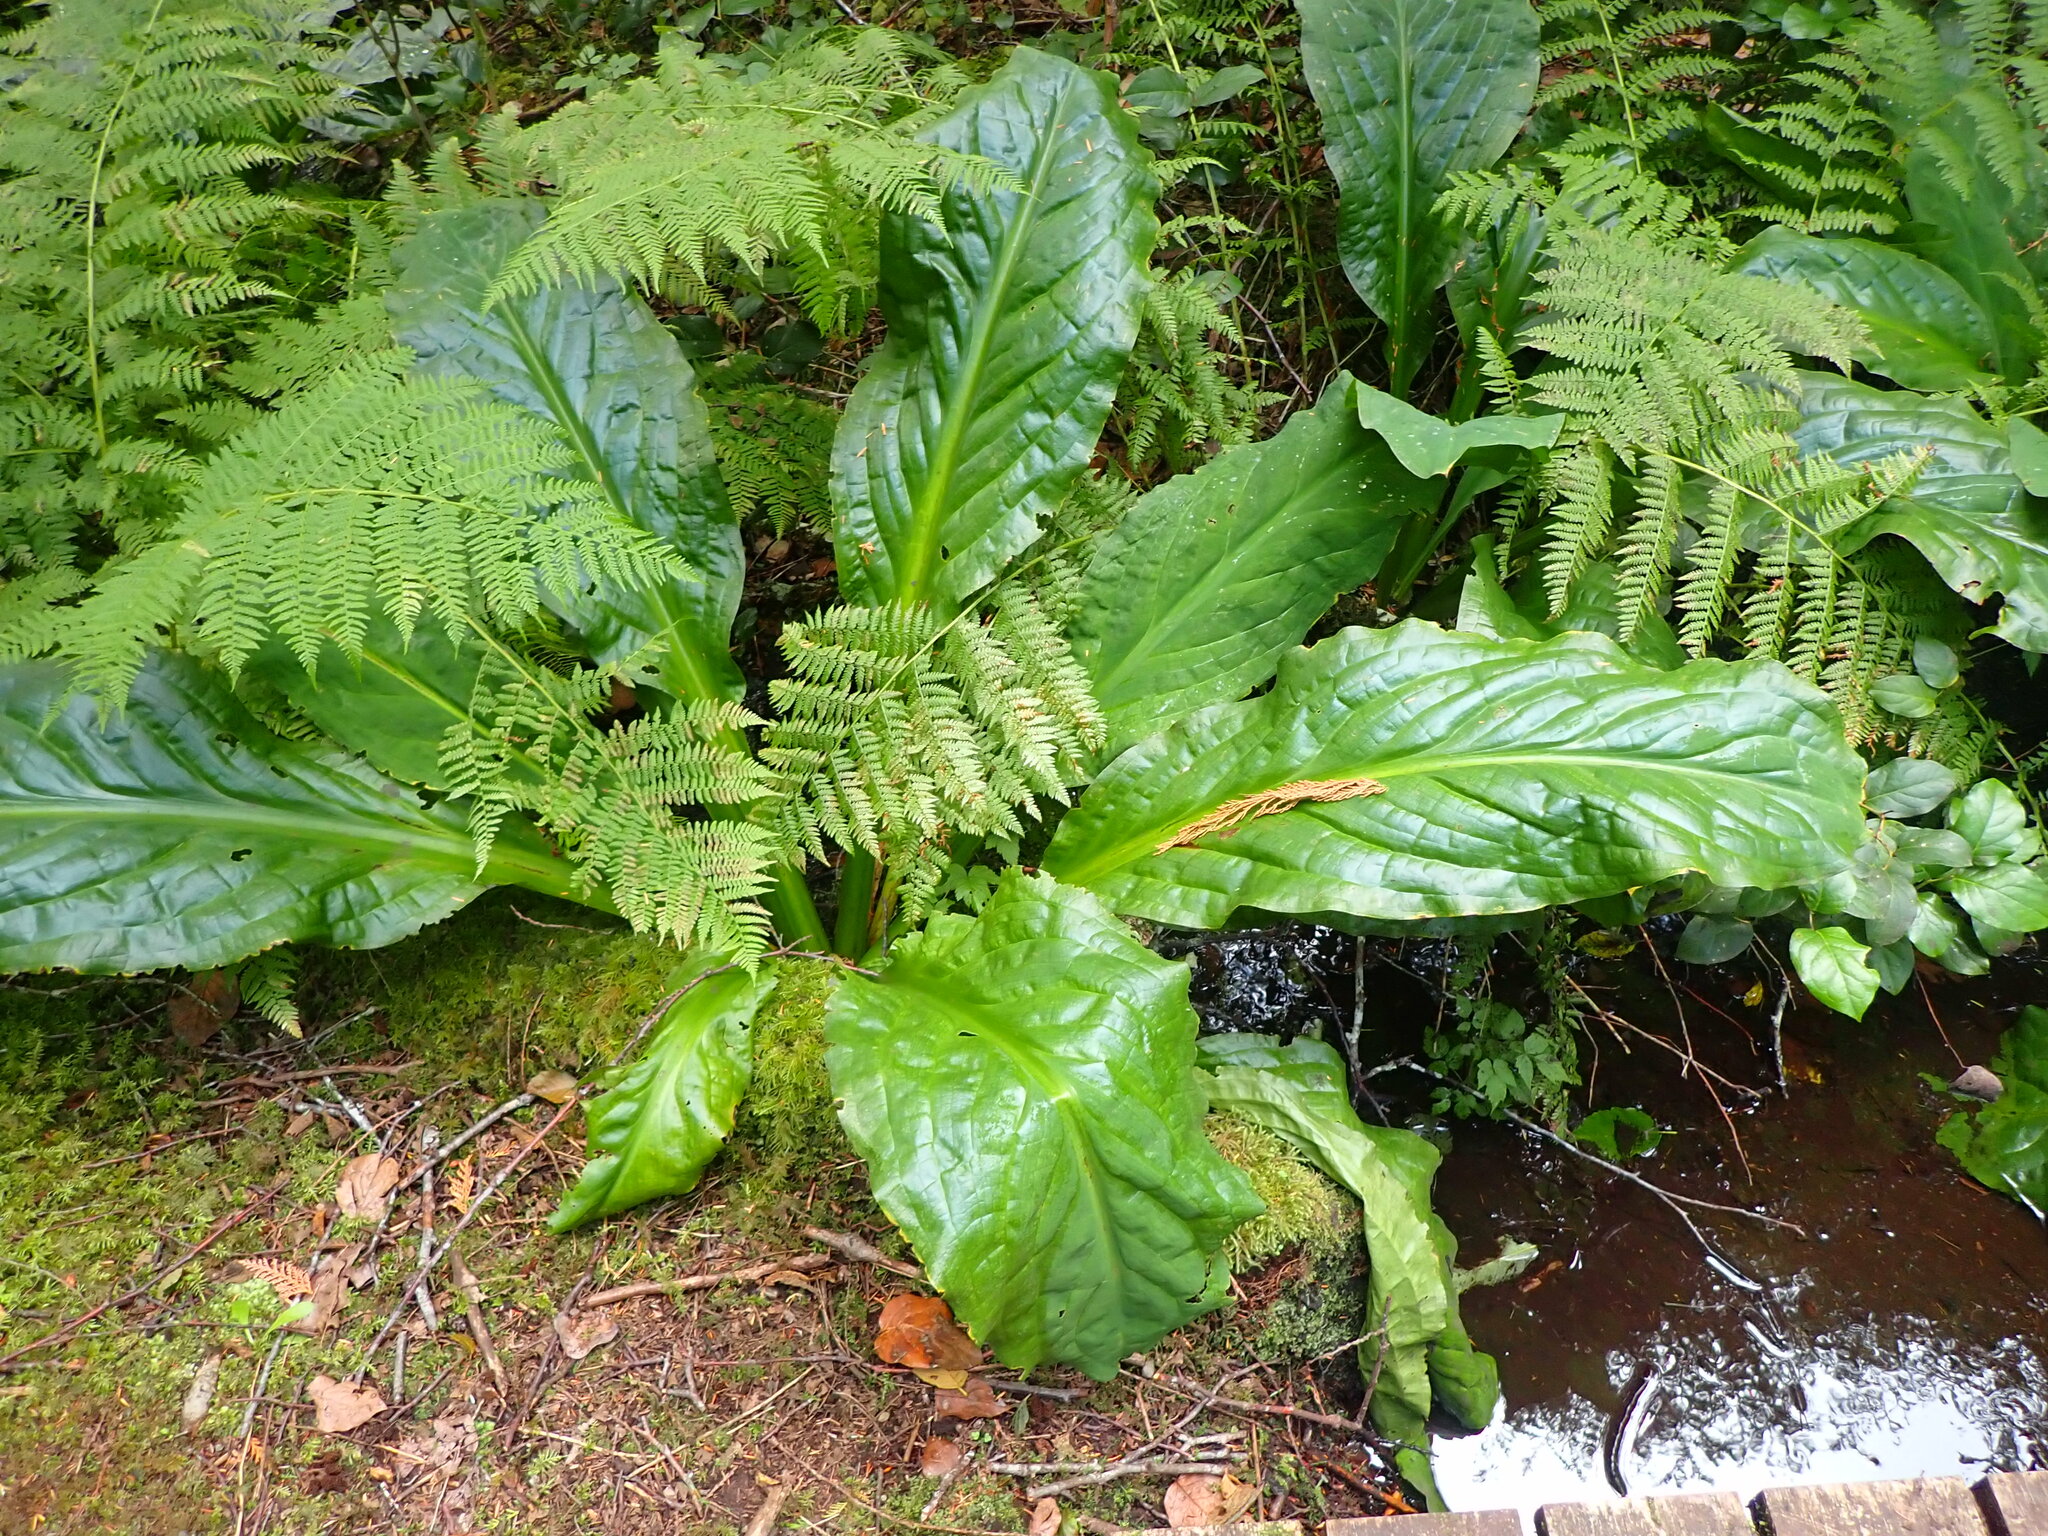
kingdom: Plantae
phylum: Tracheophyta
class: Liliopsida
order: Alismatales
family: Araceae
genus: Lysichiton
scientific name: Lysichiton americanus
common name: American skunk cabbage
